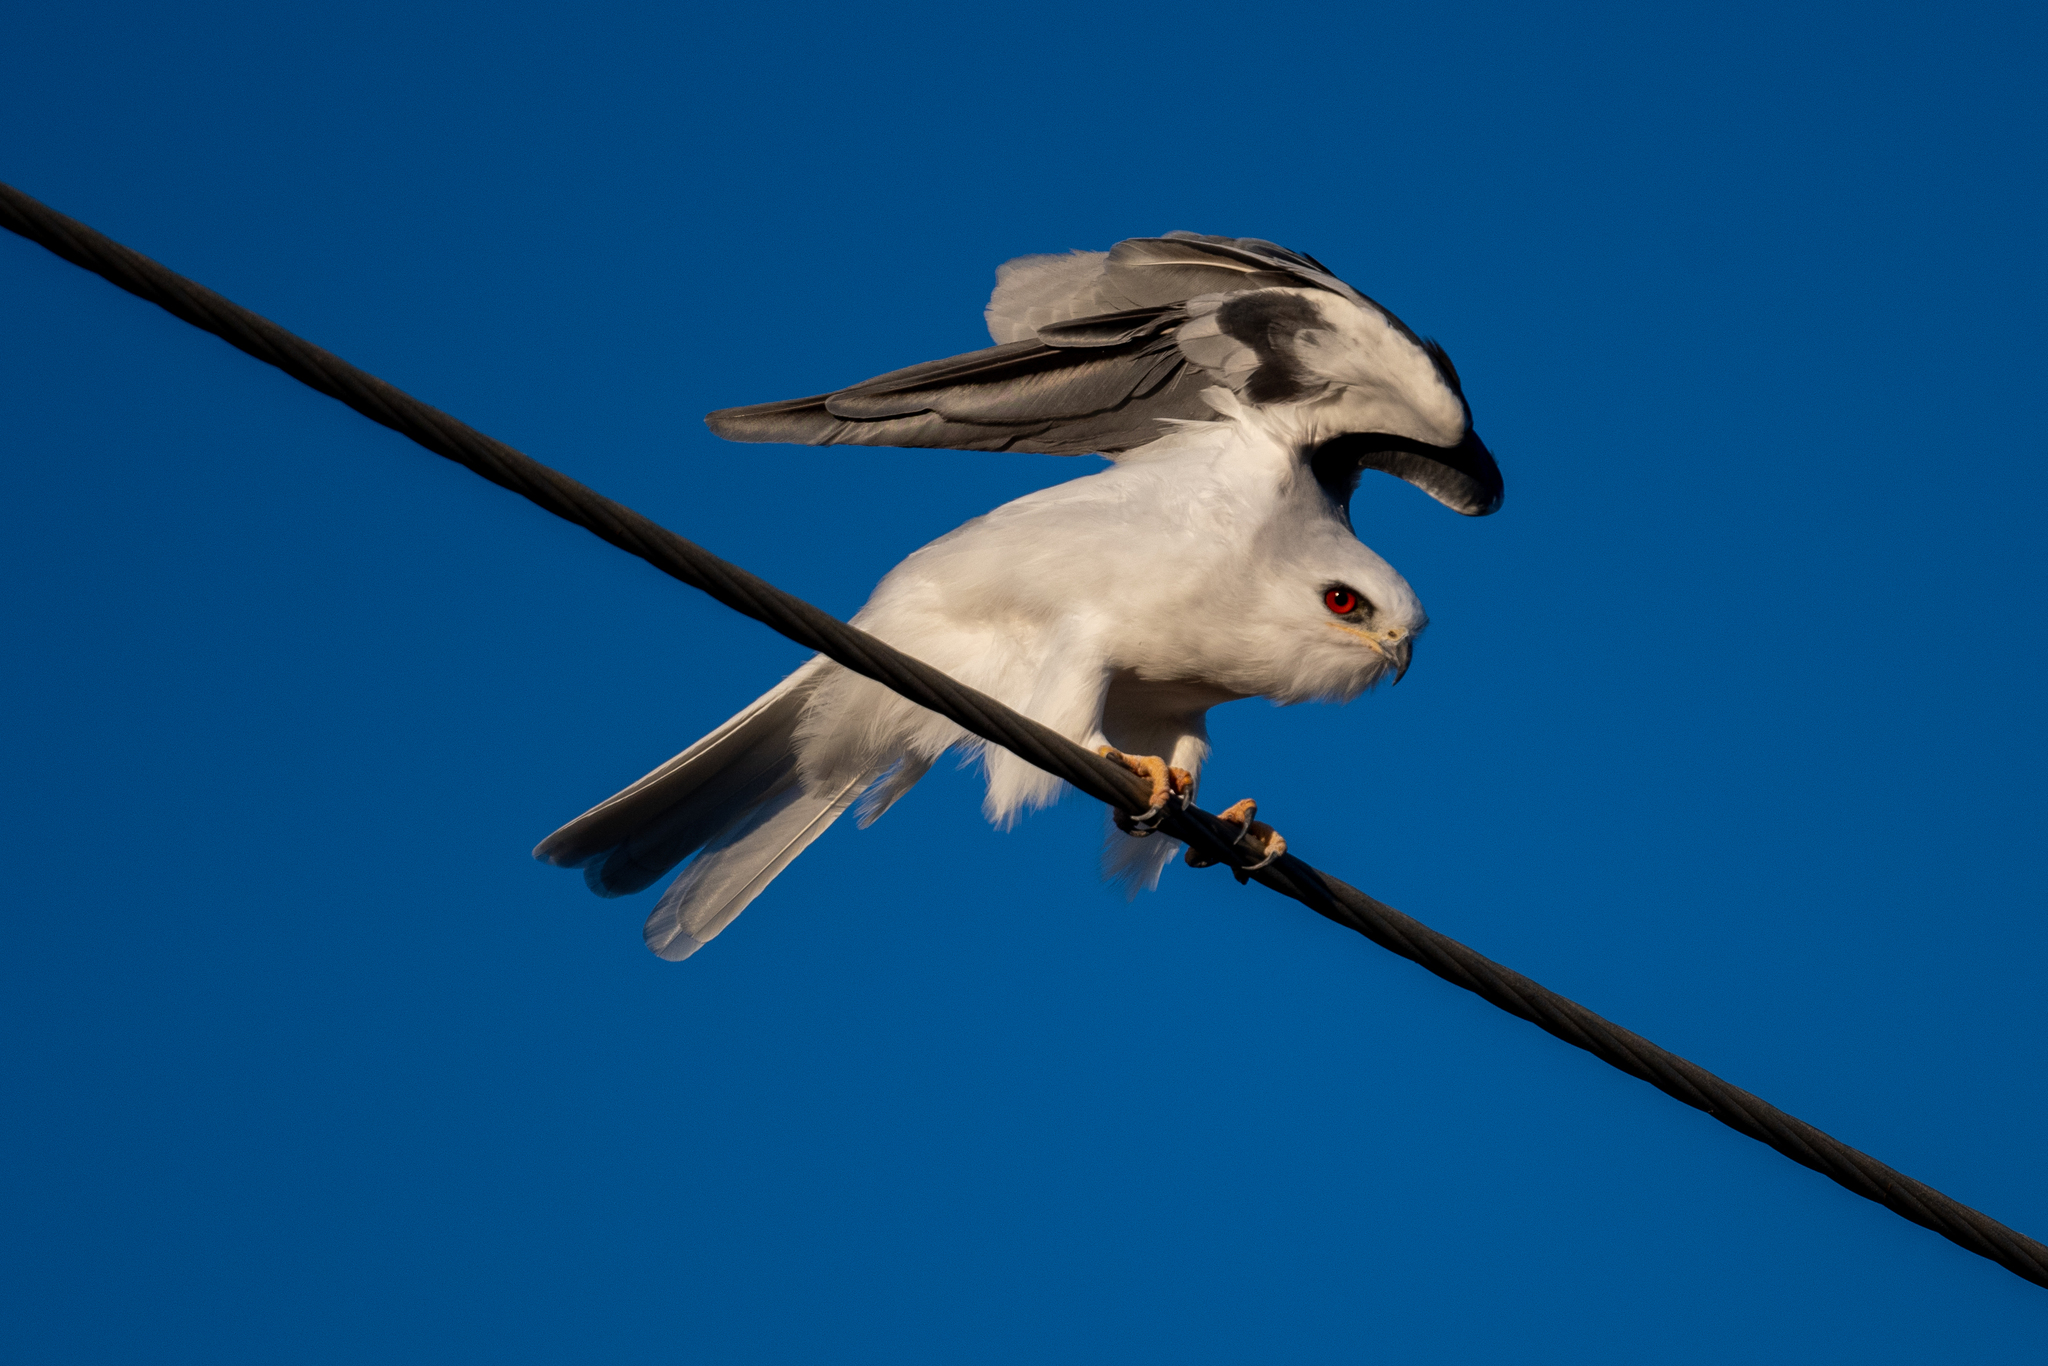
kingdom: Animalia
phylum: Chordata
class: Aves
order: Accipitriformes
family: Accipitridae
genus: Elanus
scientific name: Elanus leucurus
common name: White-tailed kite
